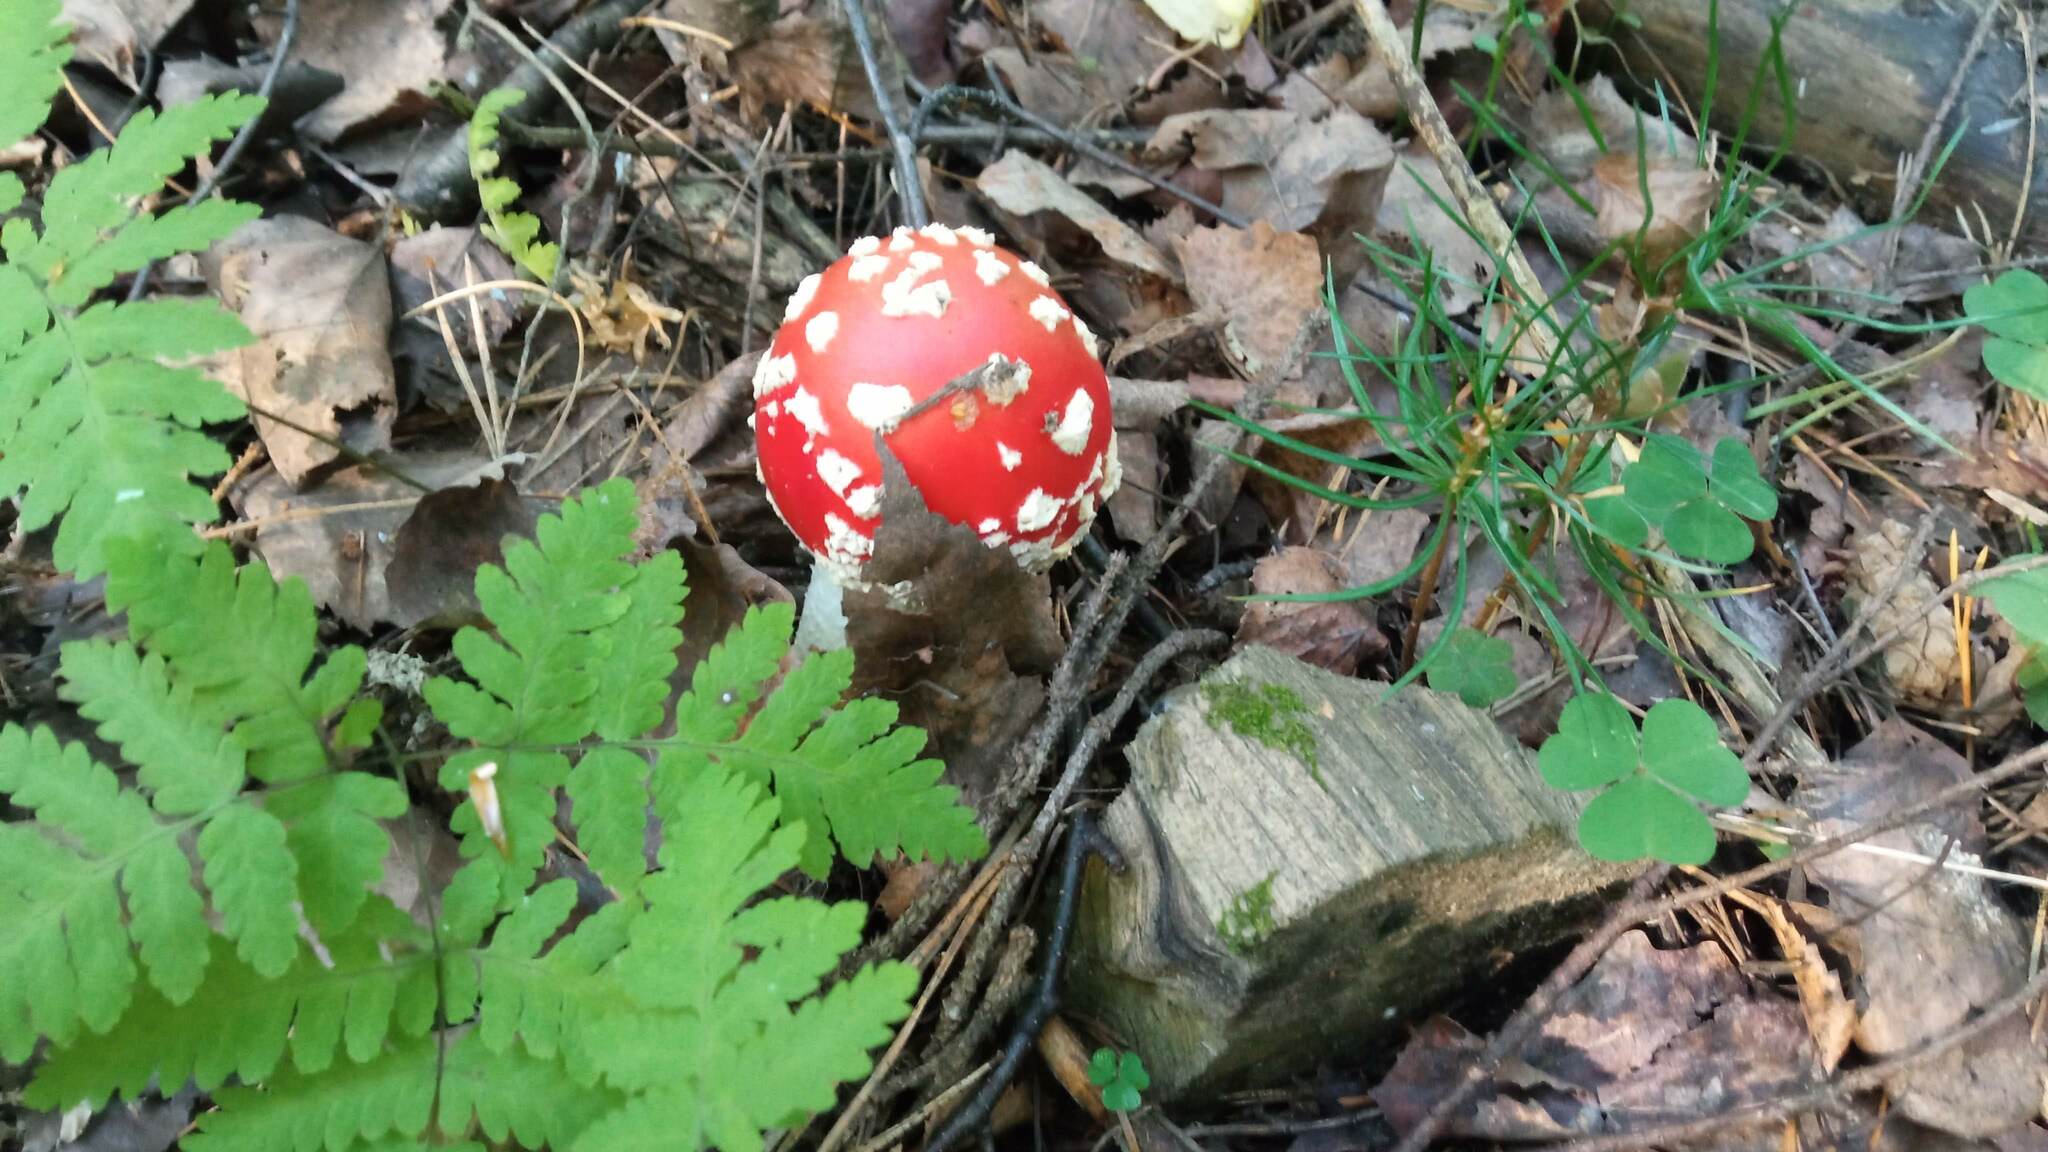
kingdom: Fungi
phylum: Basidiomycota
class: Agaricomycetes
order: Agaricales
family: Amanitaceae
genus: Amanita
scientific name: Amanita muscaria
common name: Fly agaric
